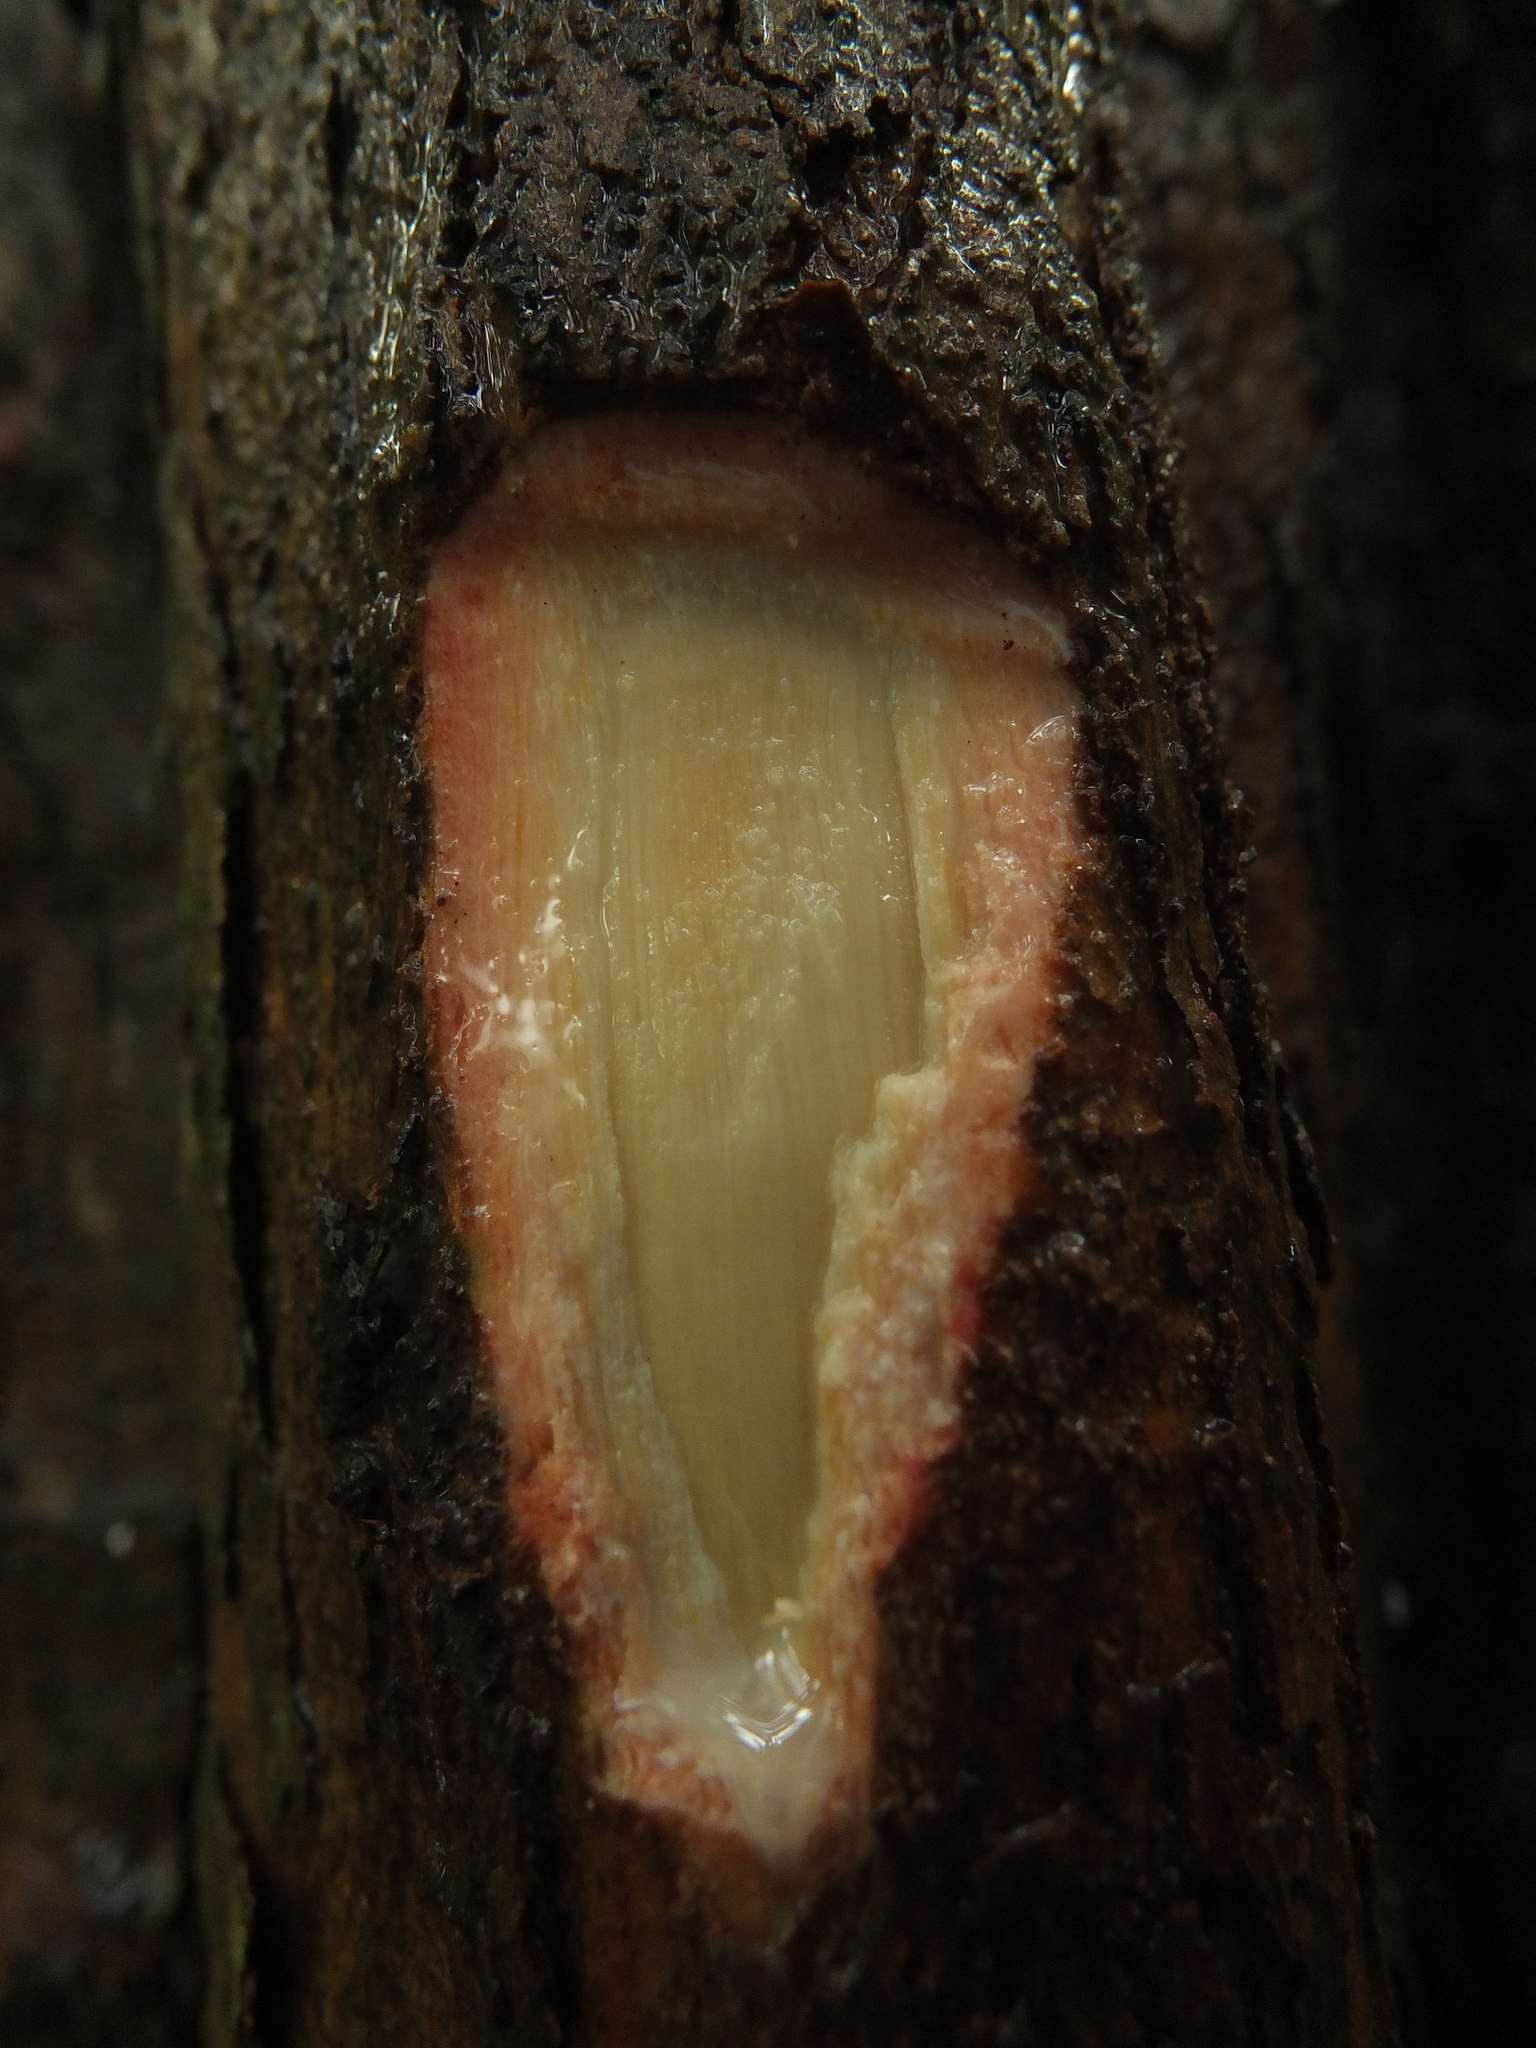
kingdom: Plantae
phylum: Tracheophyta
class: Magnoliopsida
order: Ericales
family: Sapotaceae
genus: Xantolis
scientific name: Xantolis tomentosa
